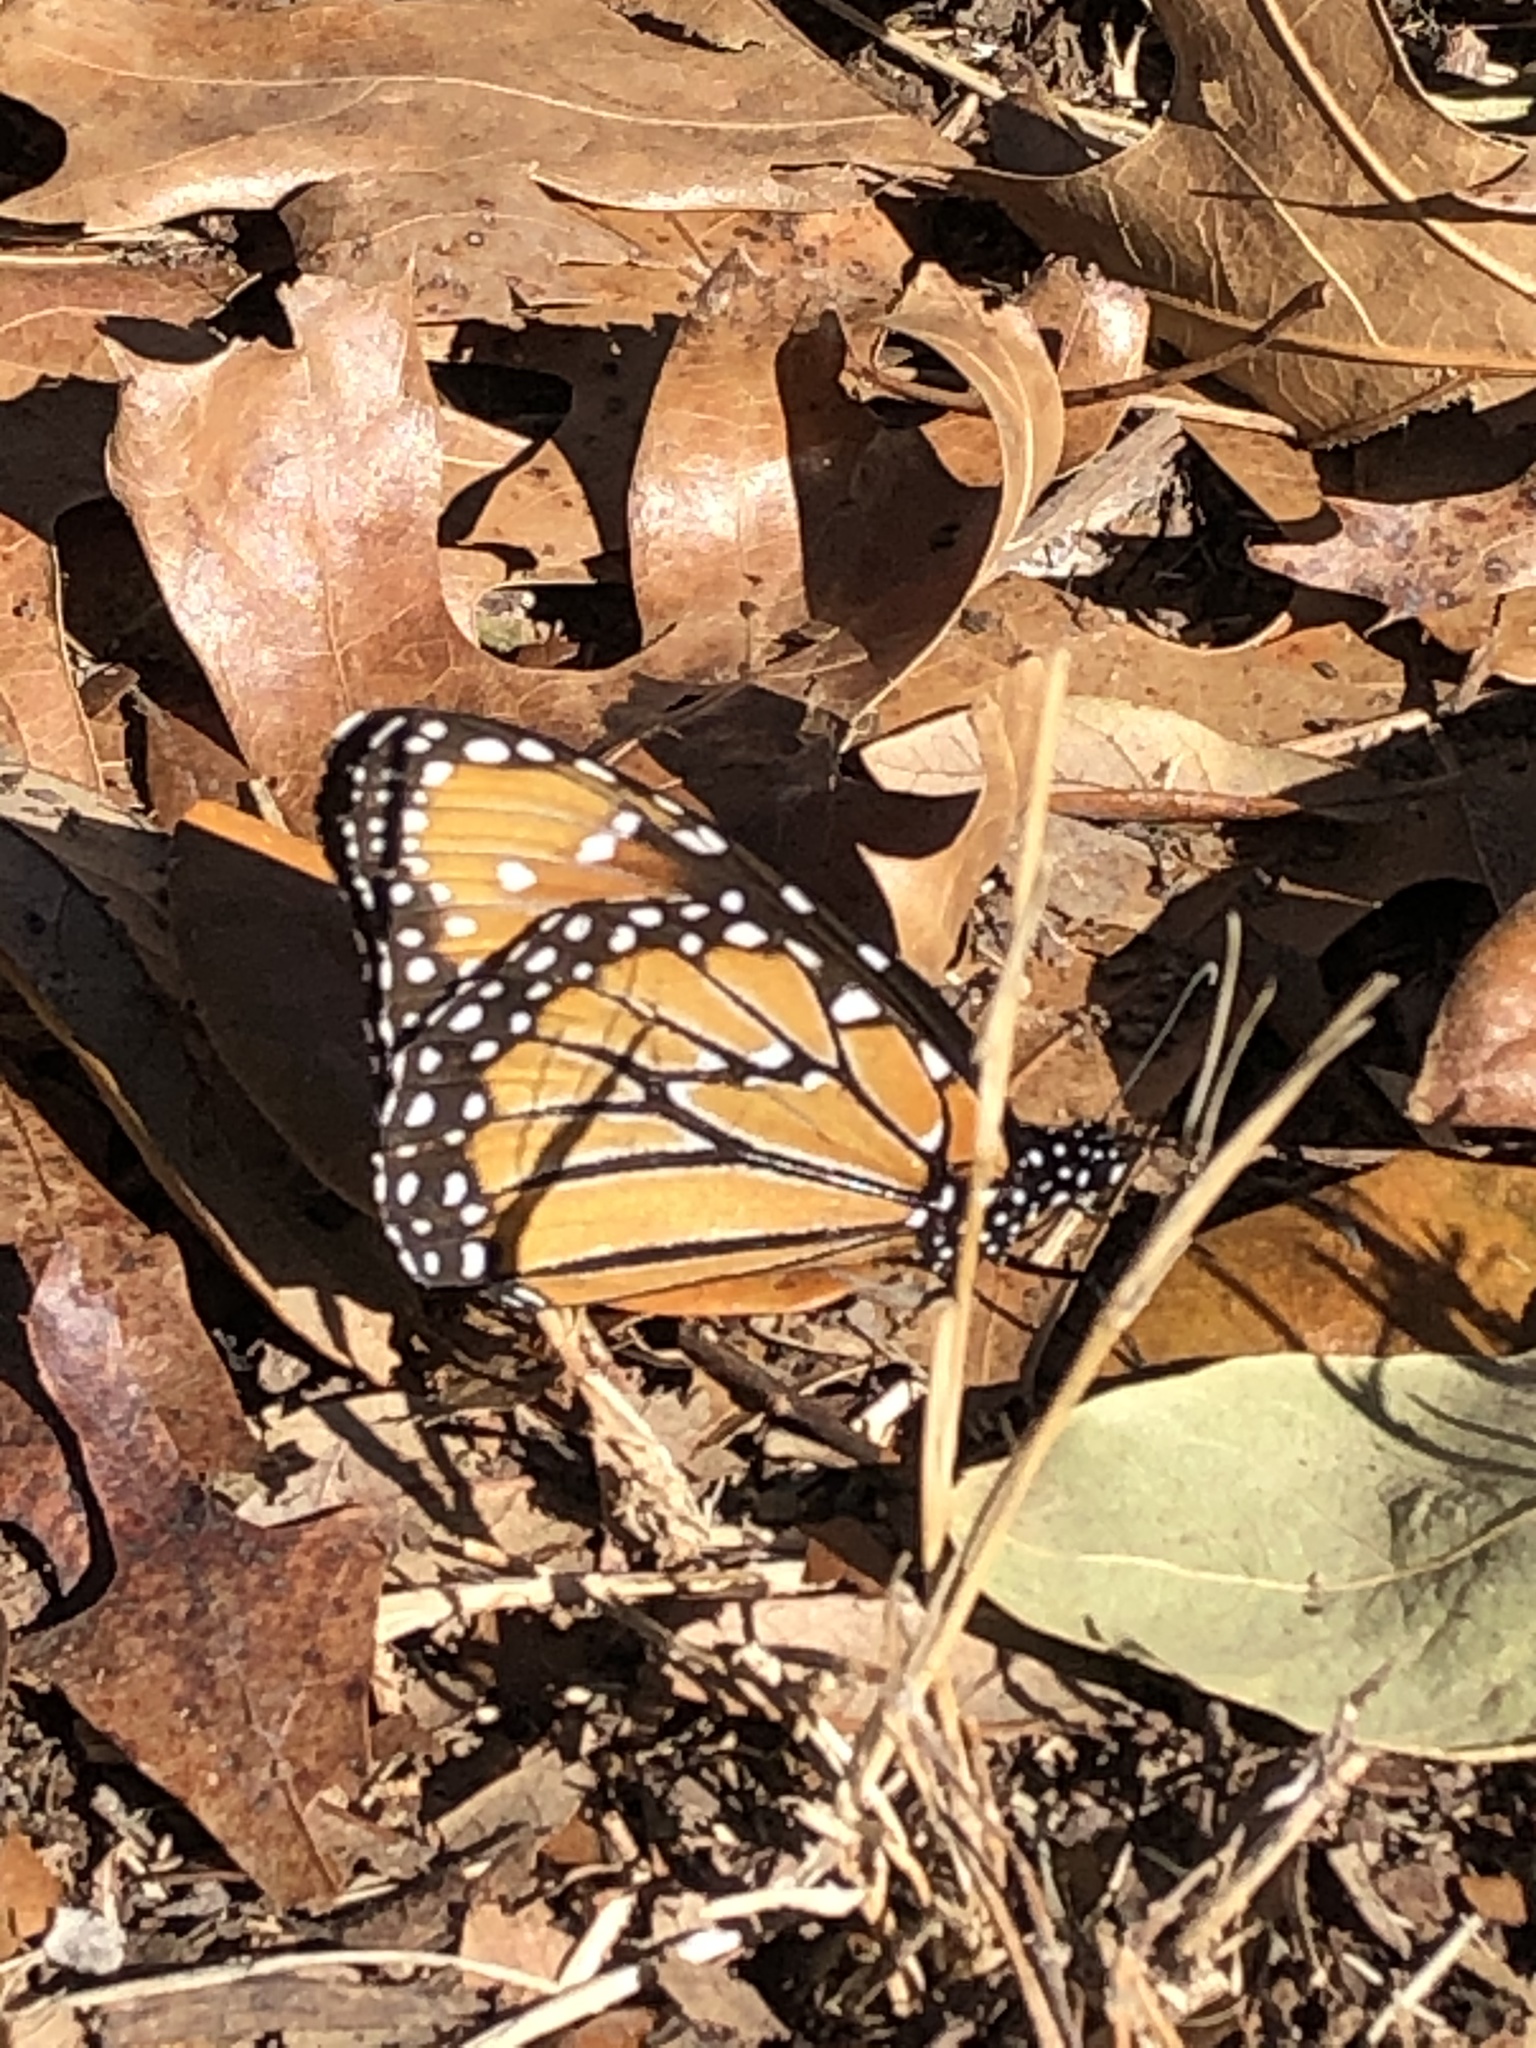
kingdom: Animalia
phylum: Arthropoda
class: Insecta
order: Lepidoptera
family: Nymphalidae
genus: Danaus
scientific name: Danaus gilippus
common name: Queen
